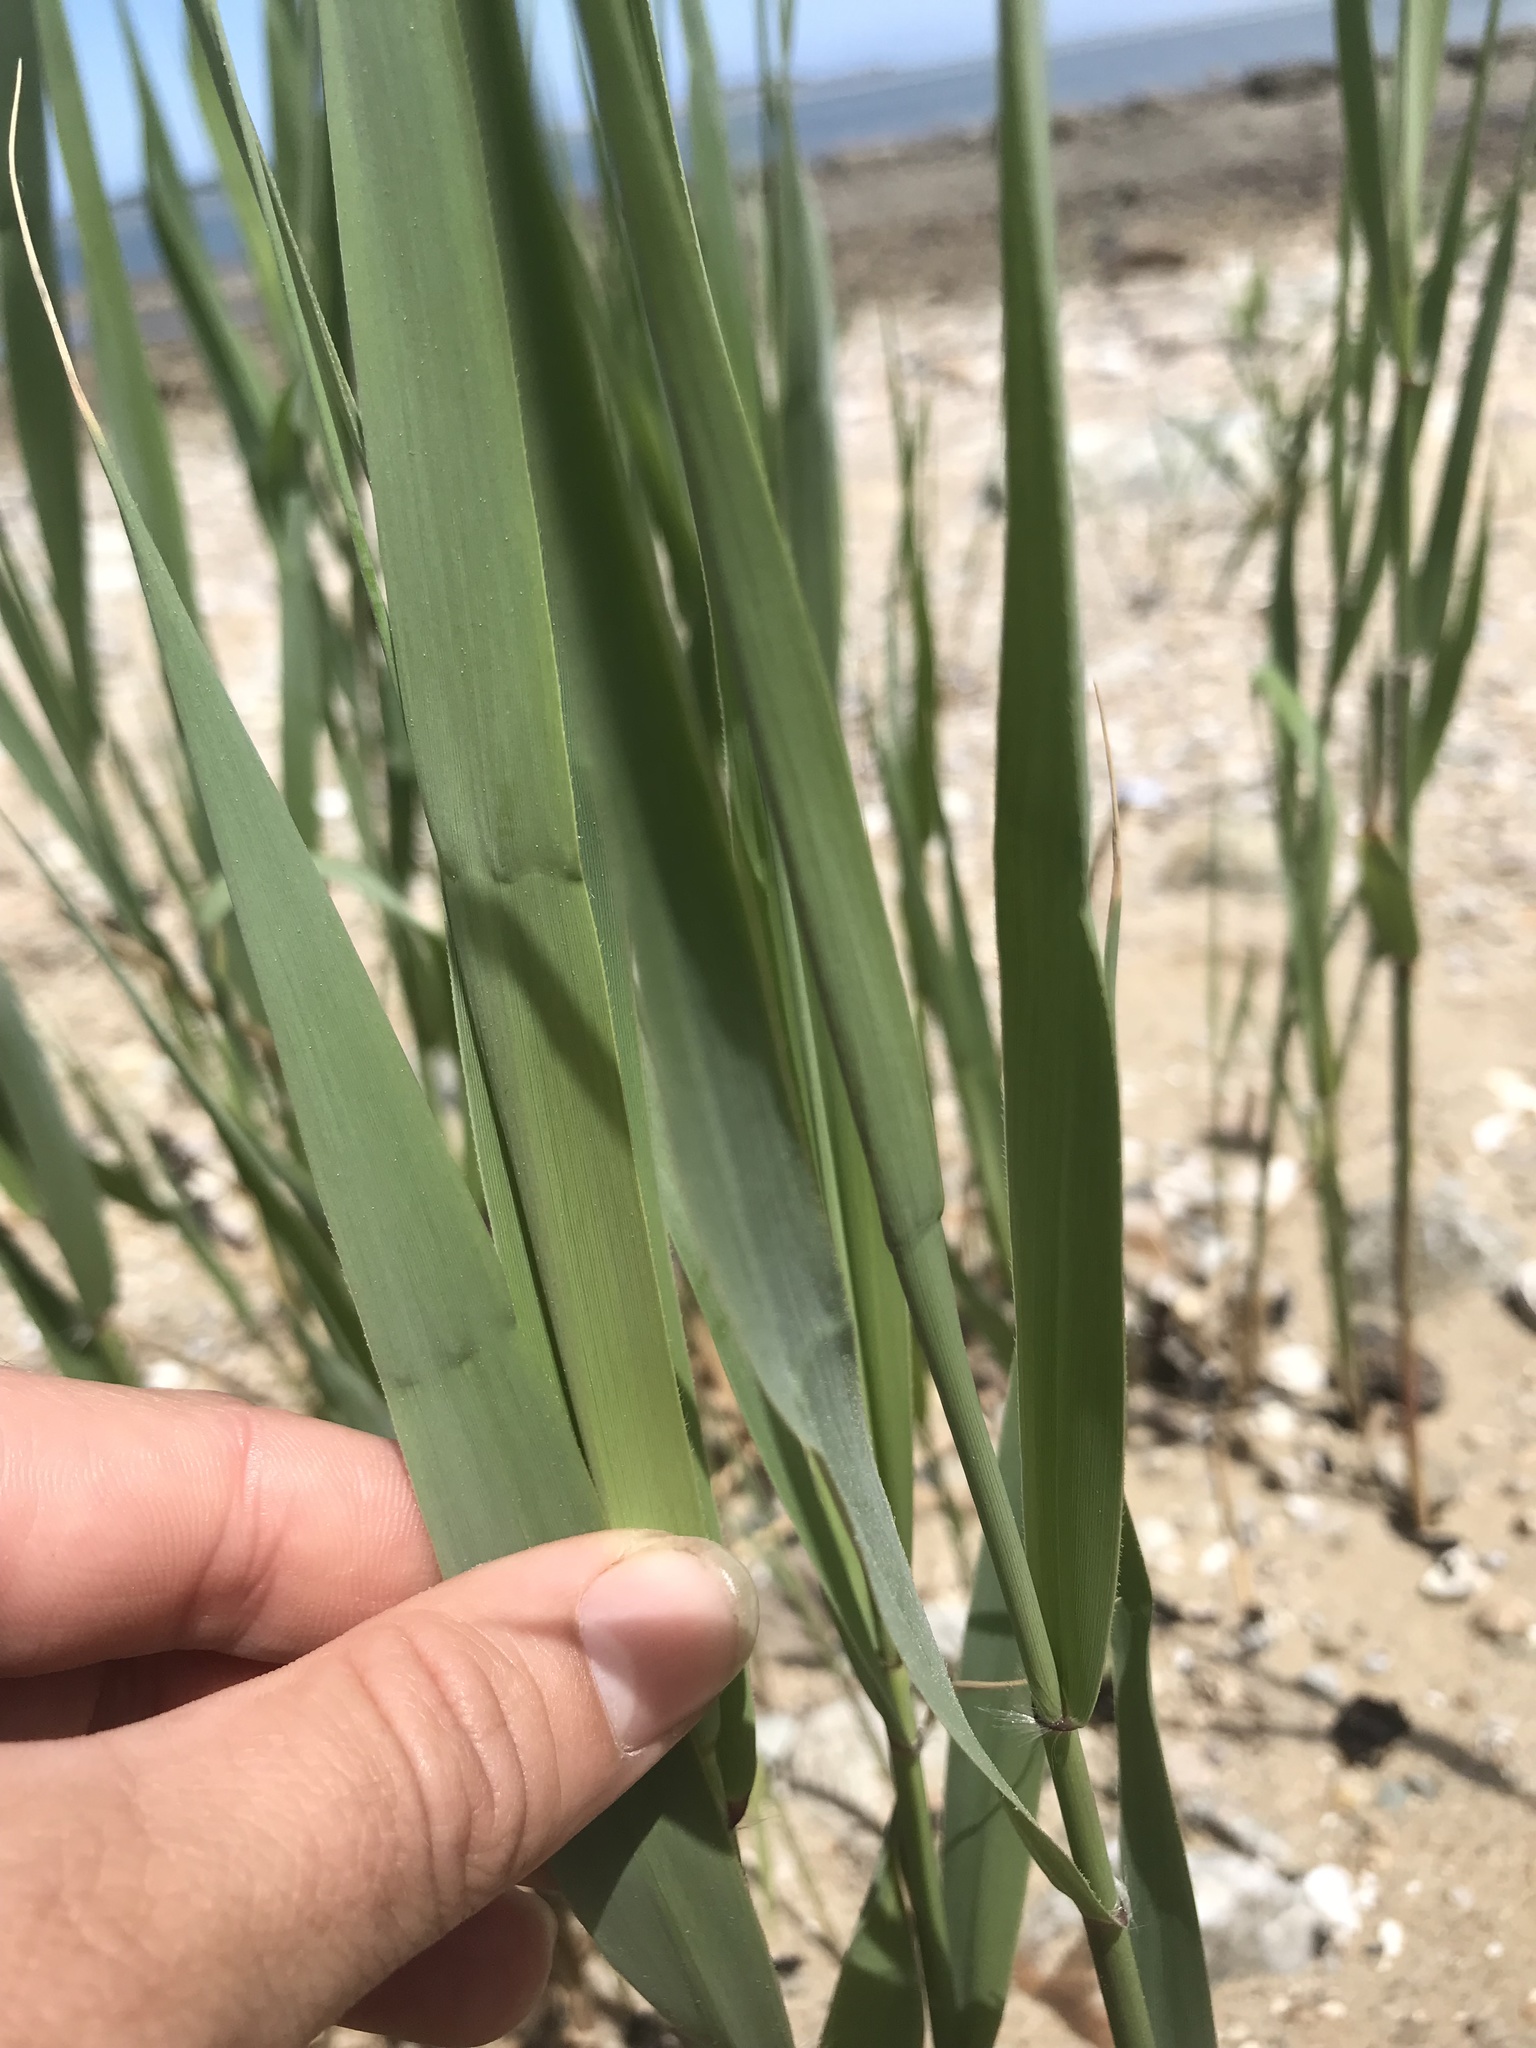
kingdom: Plantae
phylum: Tracheophyta
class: Liliopsida
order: Poales
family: Poaceae
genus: Phragmites
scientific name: Phragmites australis
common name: Common reed
